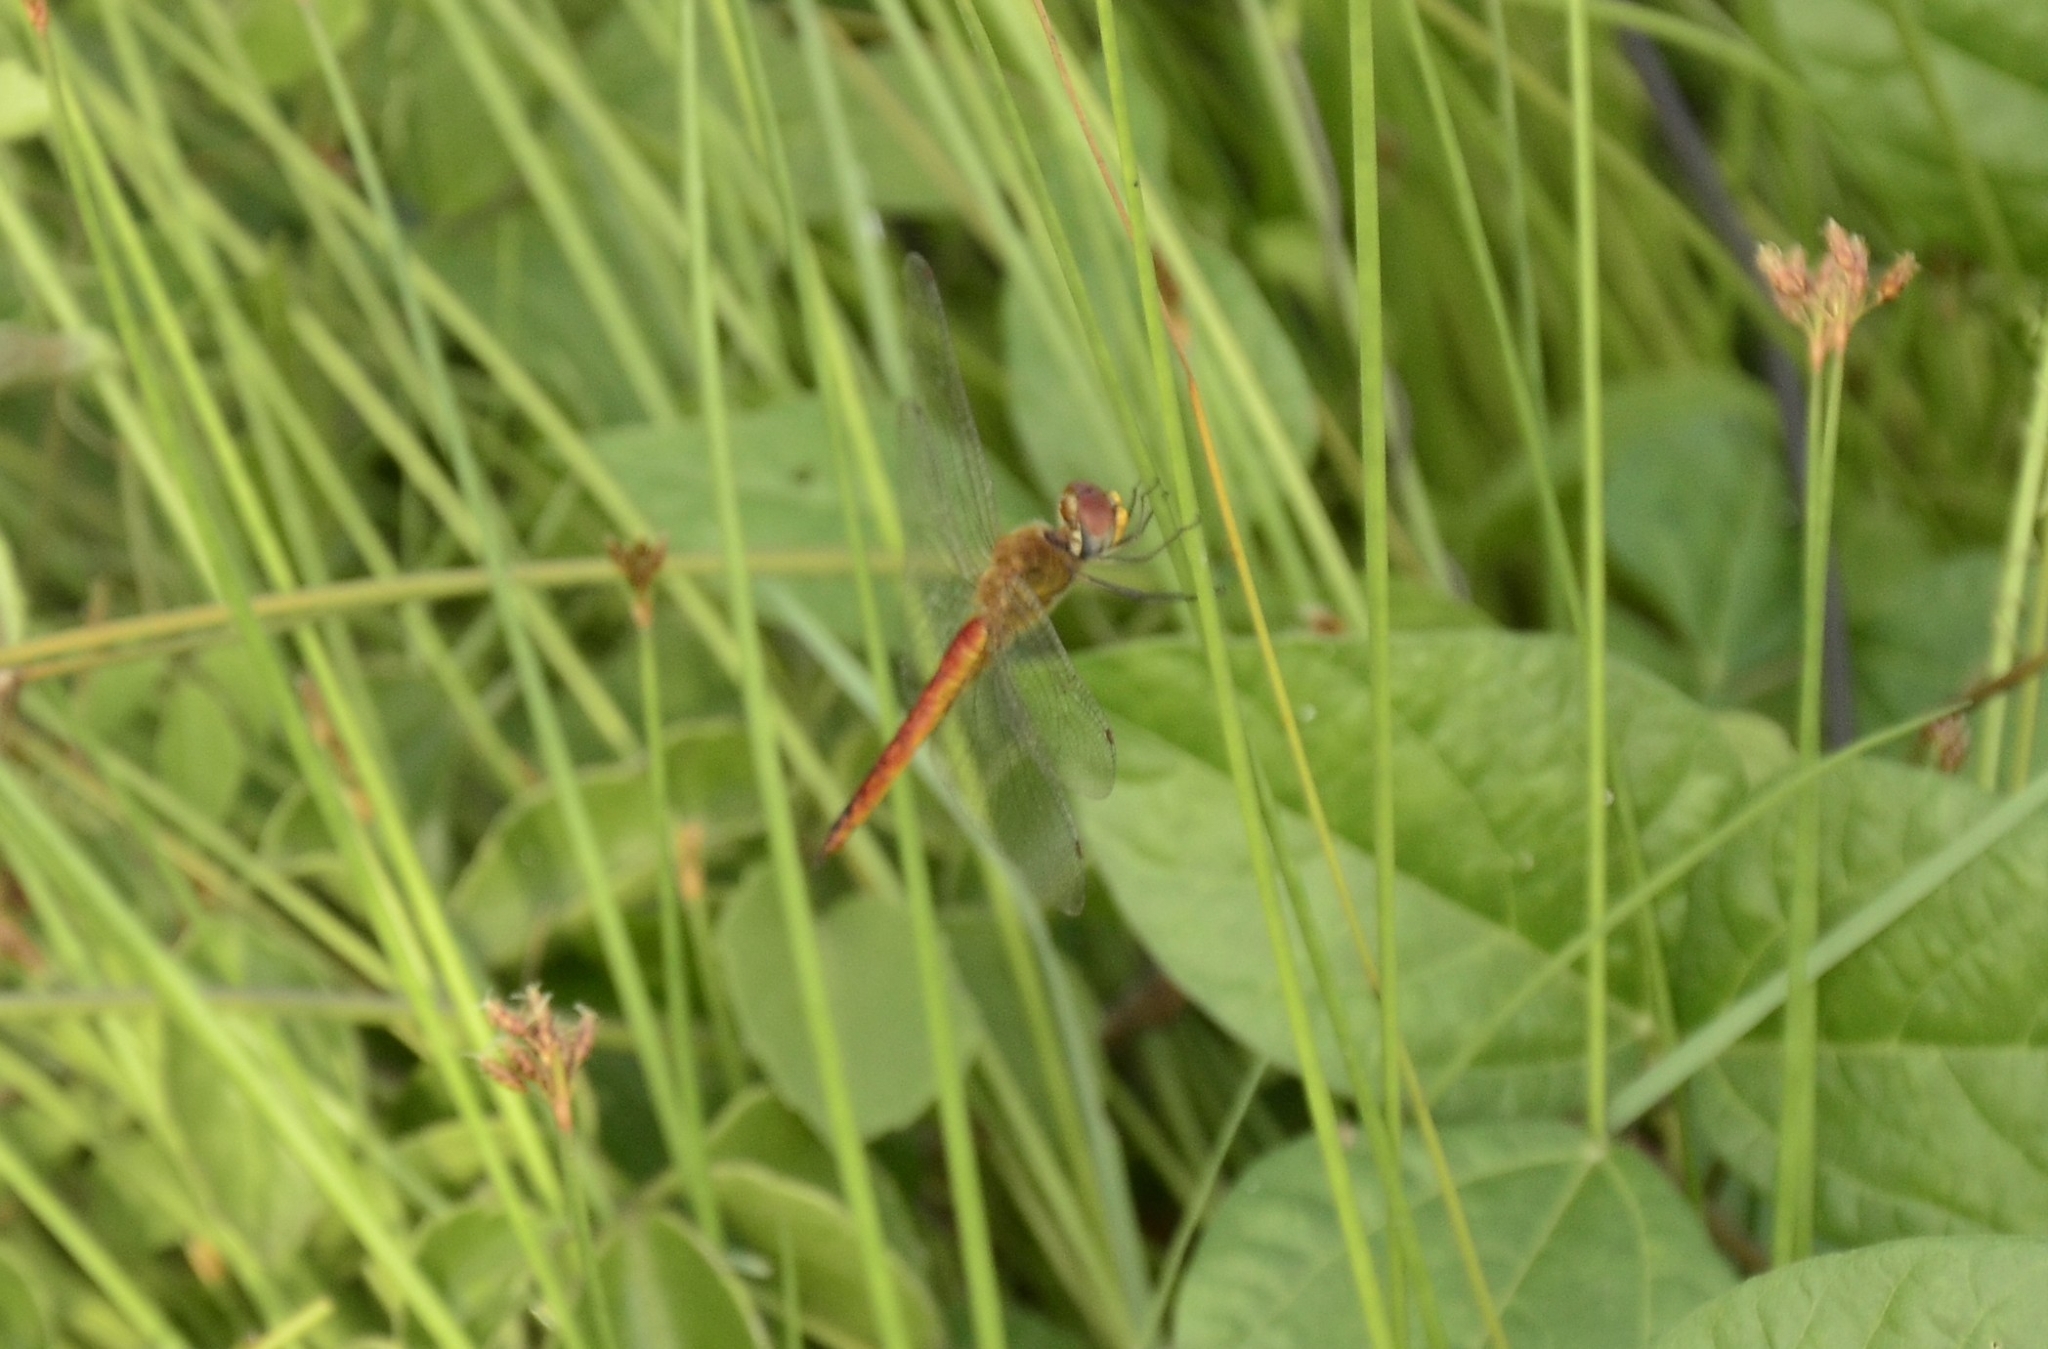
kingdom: Animalia
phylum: Arthropoda
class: Insecta
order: Odonata
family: Libellulidae
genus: Pantala
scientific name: Pantala flavescens
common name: Wandering glider
